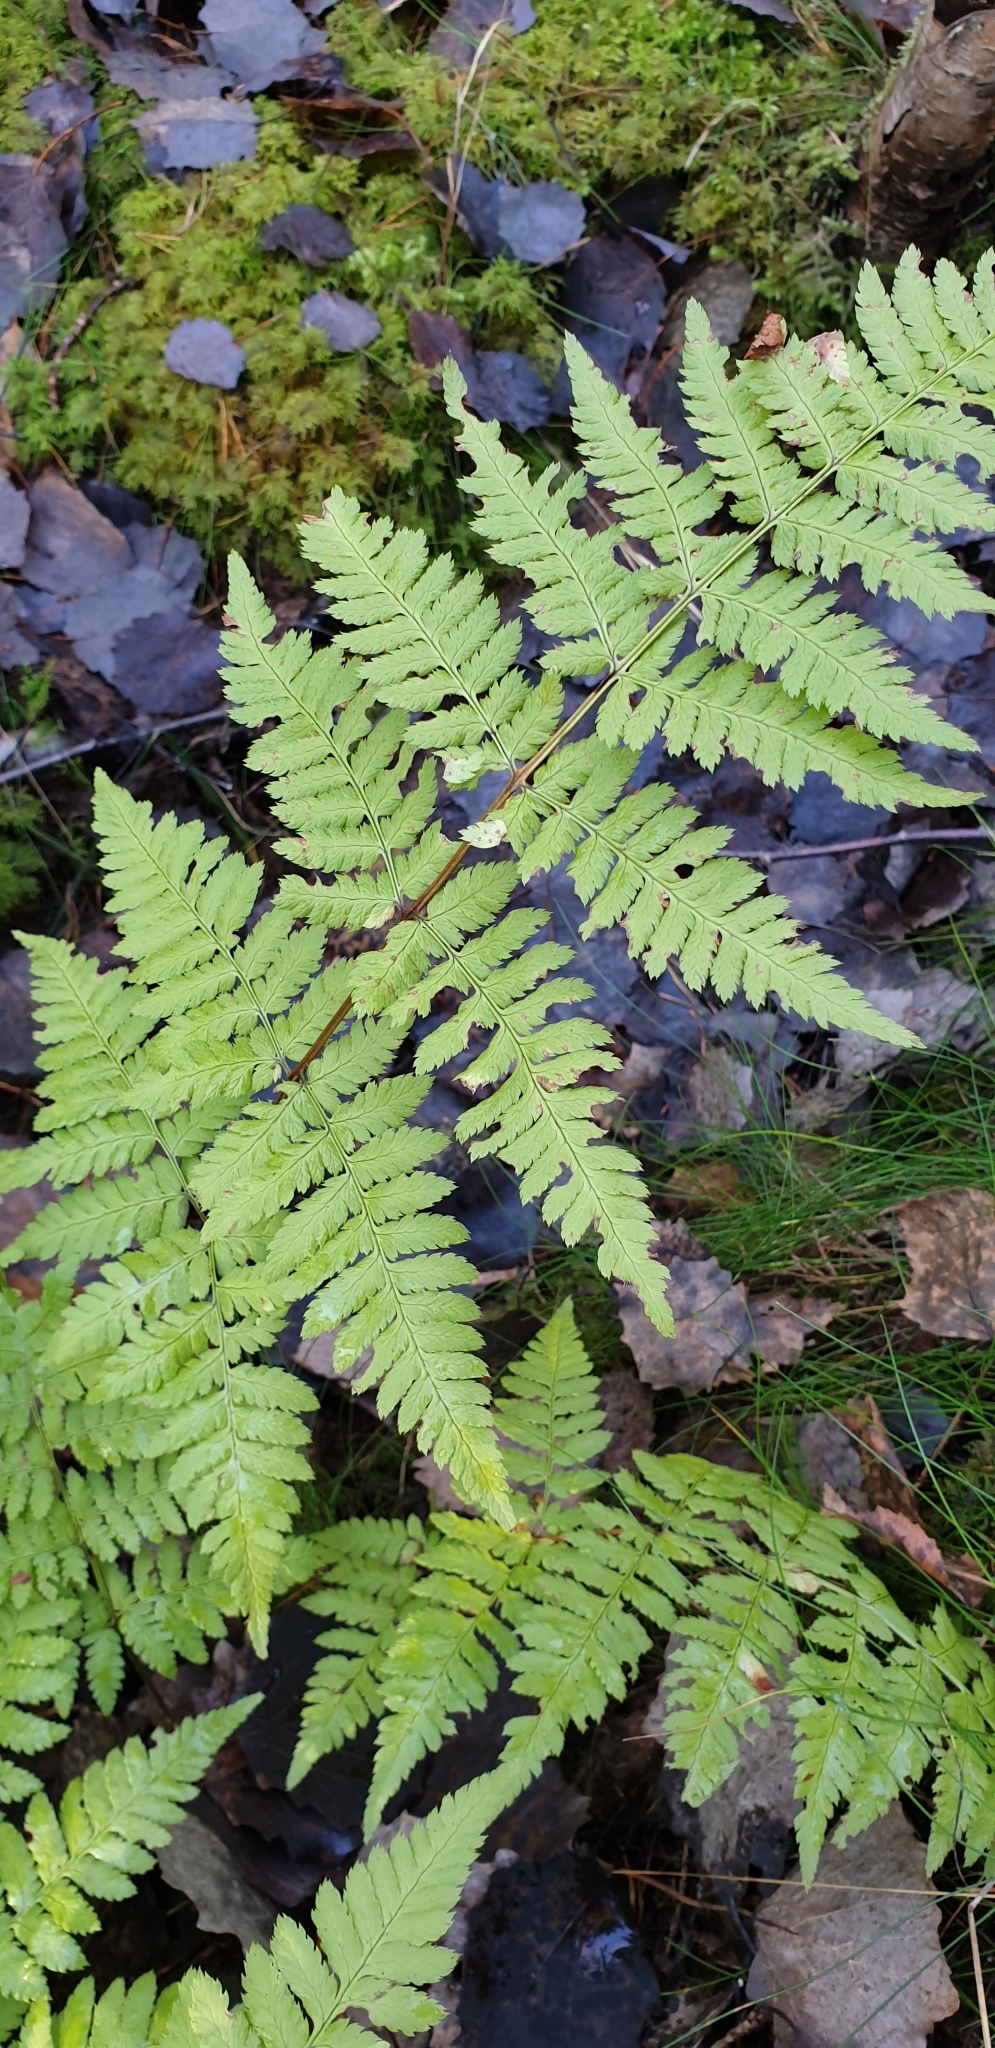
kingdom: Plantae
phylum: Tracheophyta
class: Polypodiopsida
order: Polypodiales
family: Dryopteridaceae
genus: Dryopteris
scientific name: Dryopteris carthusiana
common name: Narrow buckler-fern
